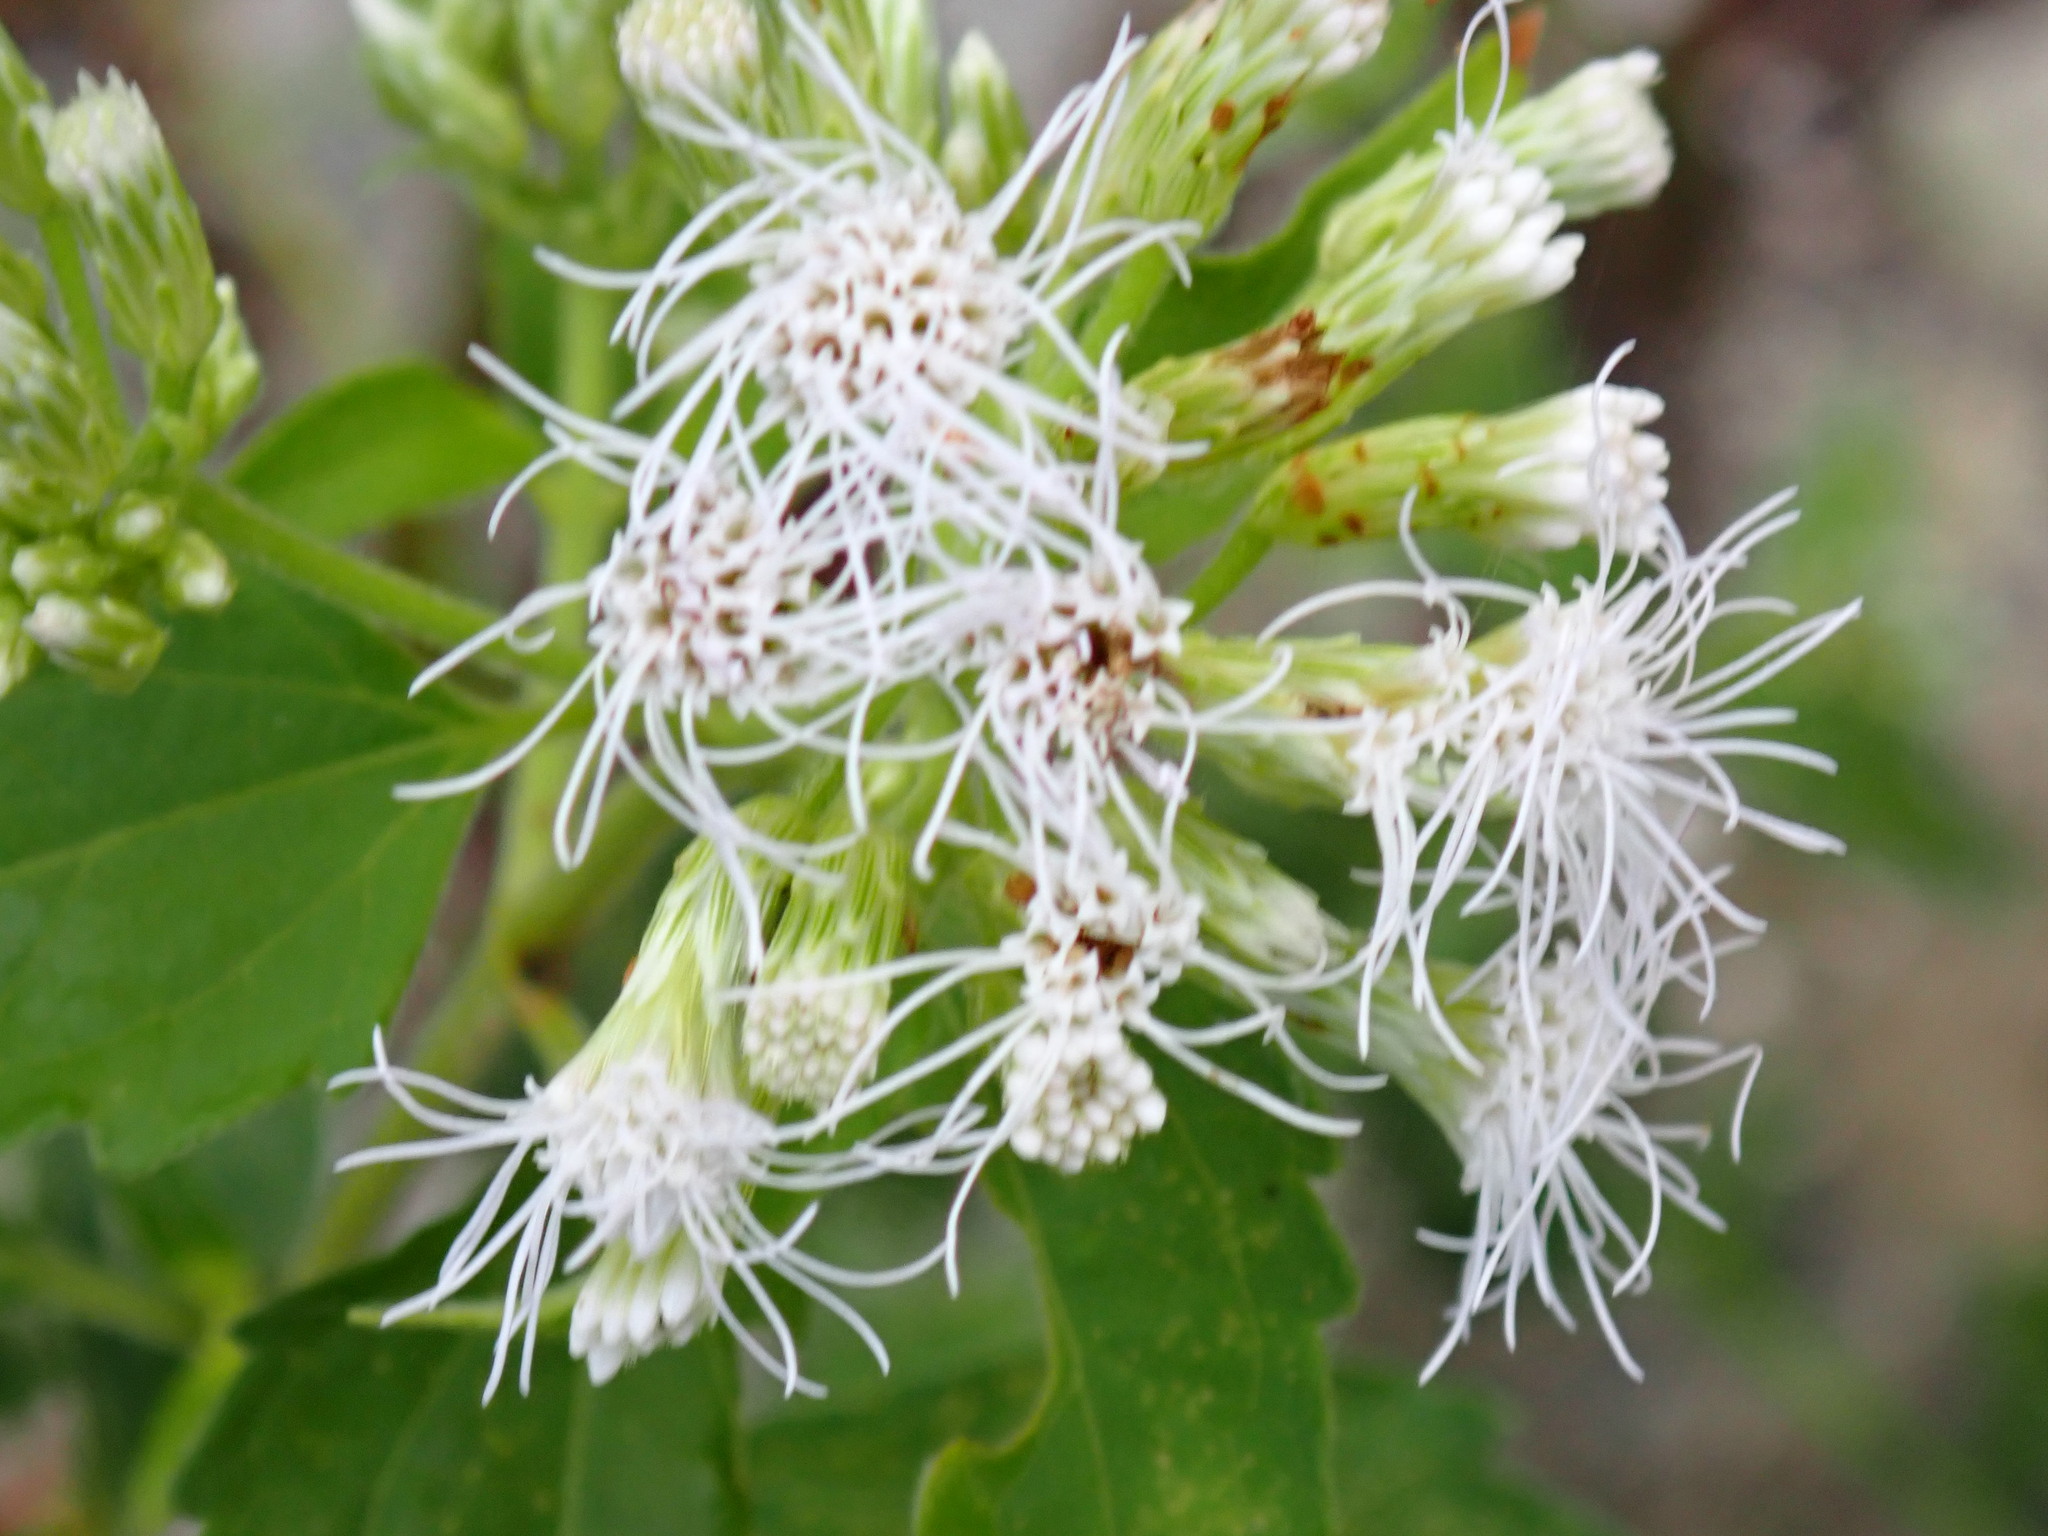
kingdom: Plantae
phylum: Tracheophyta
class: Magnoliopsida
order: Asterales
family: Asteraceae
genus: Chromolaena
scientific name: Chromolaena odorata
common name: Siamweed
